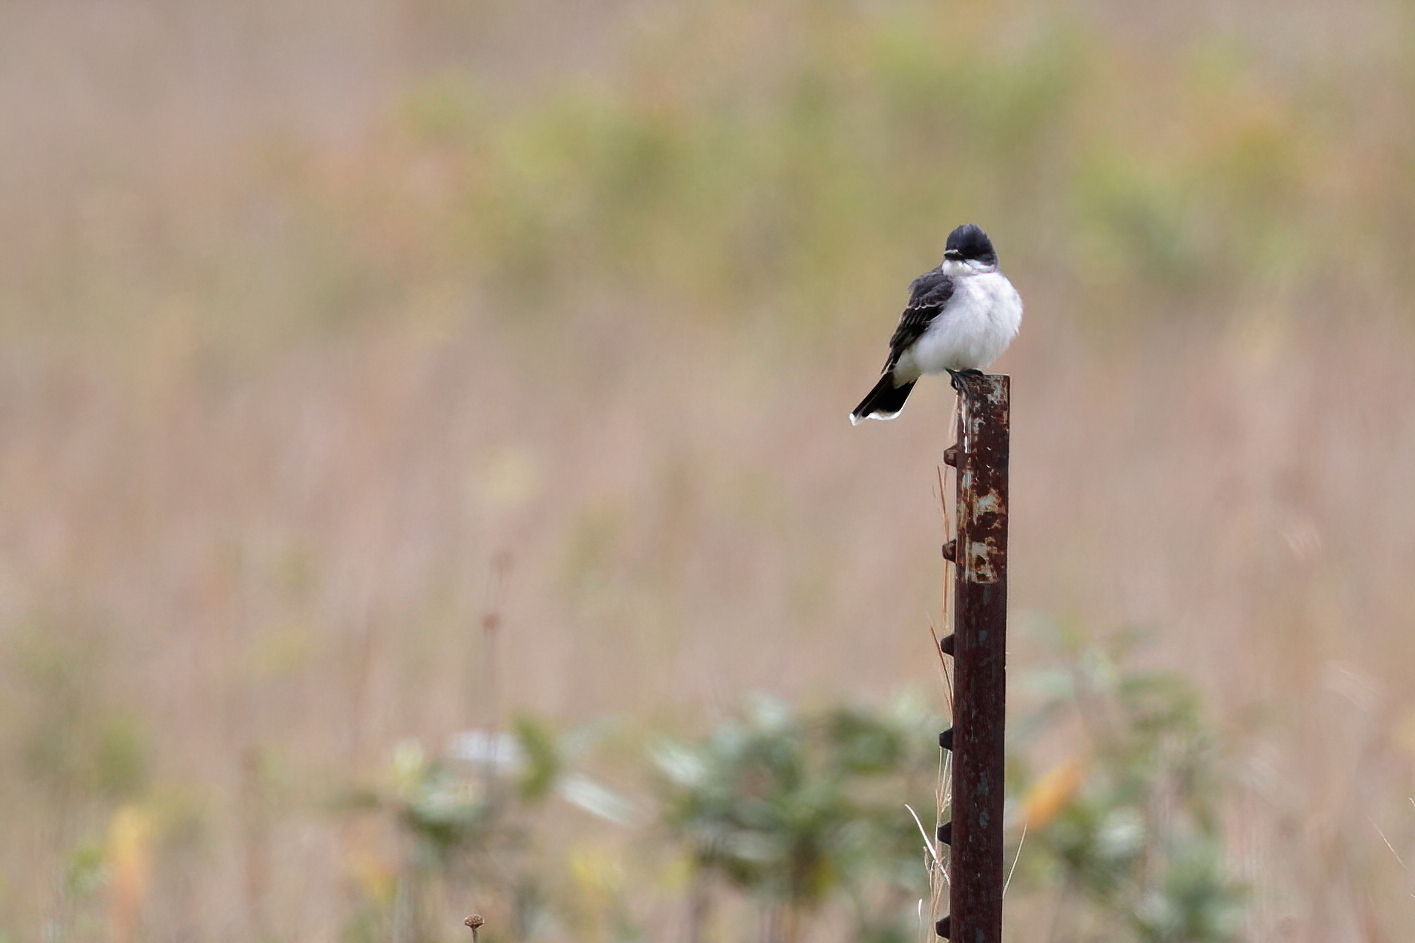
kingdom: Animalia
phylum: Chordata
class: Aves
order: Passeriformes
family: Tyrannidae
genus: Tyrannus
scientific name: Tyrannus tyrannus
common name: Eastern kingbird
